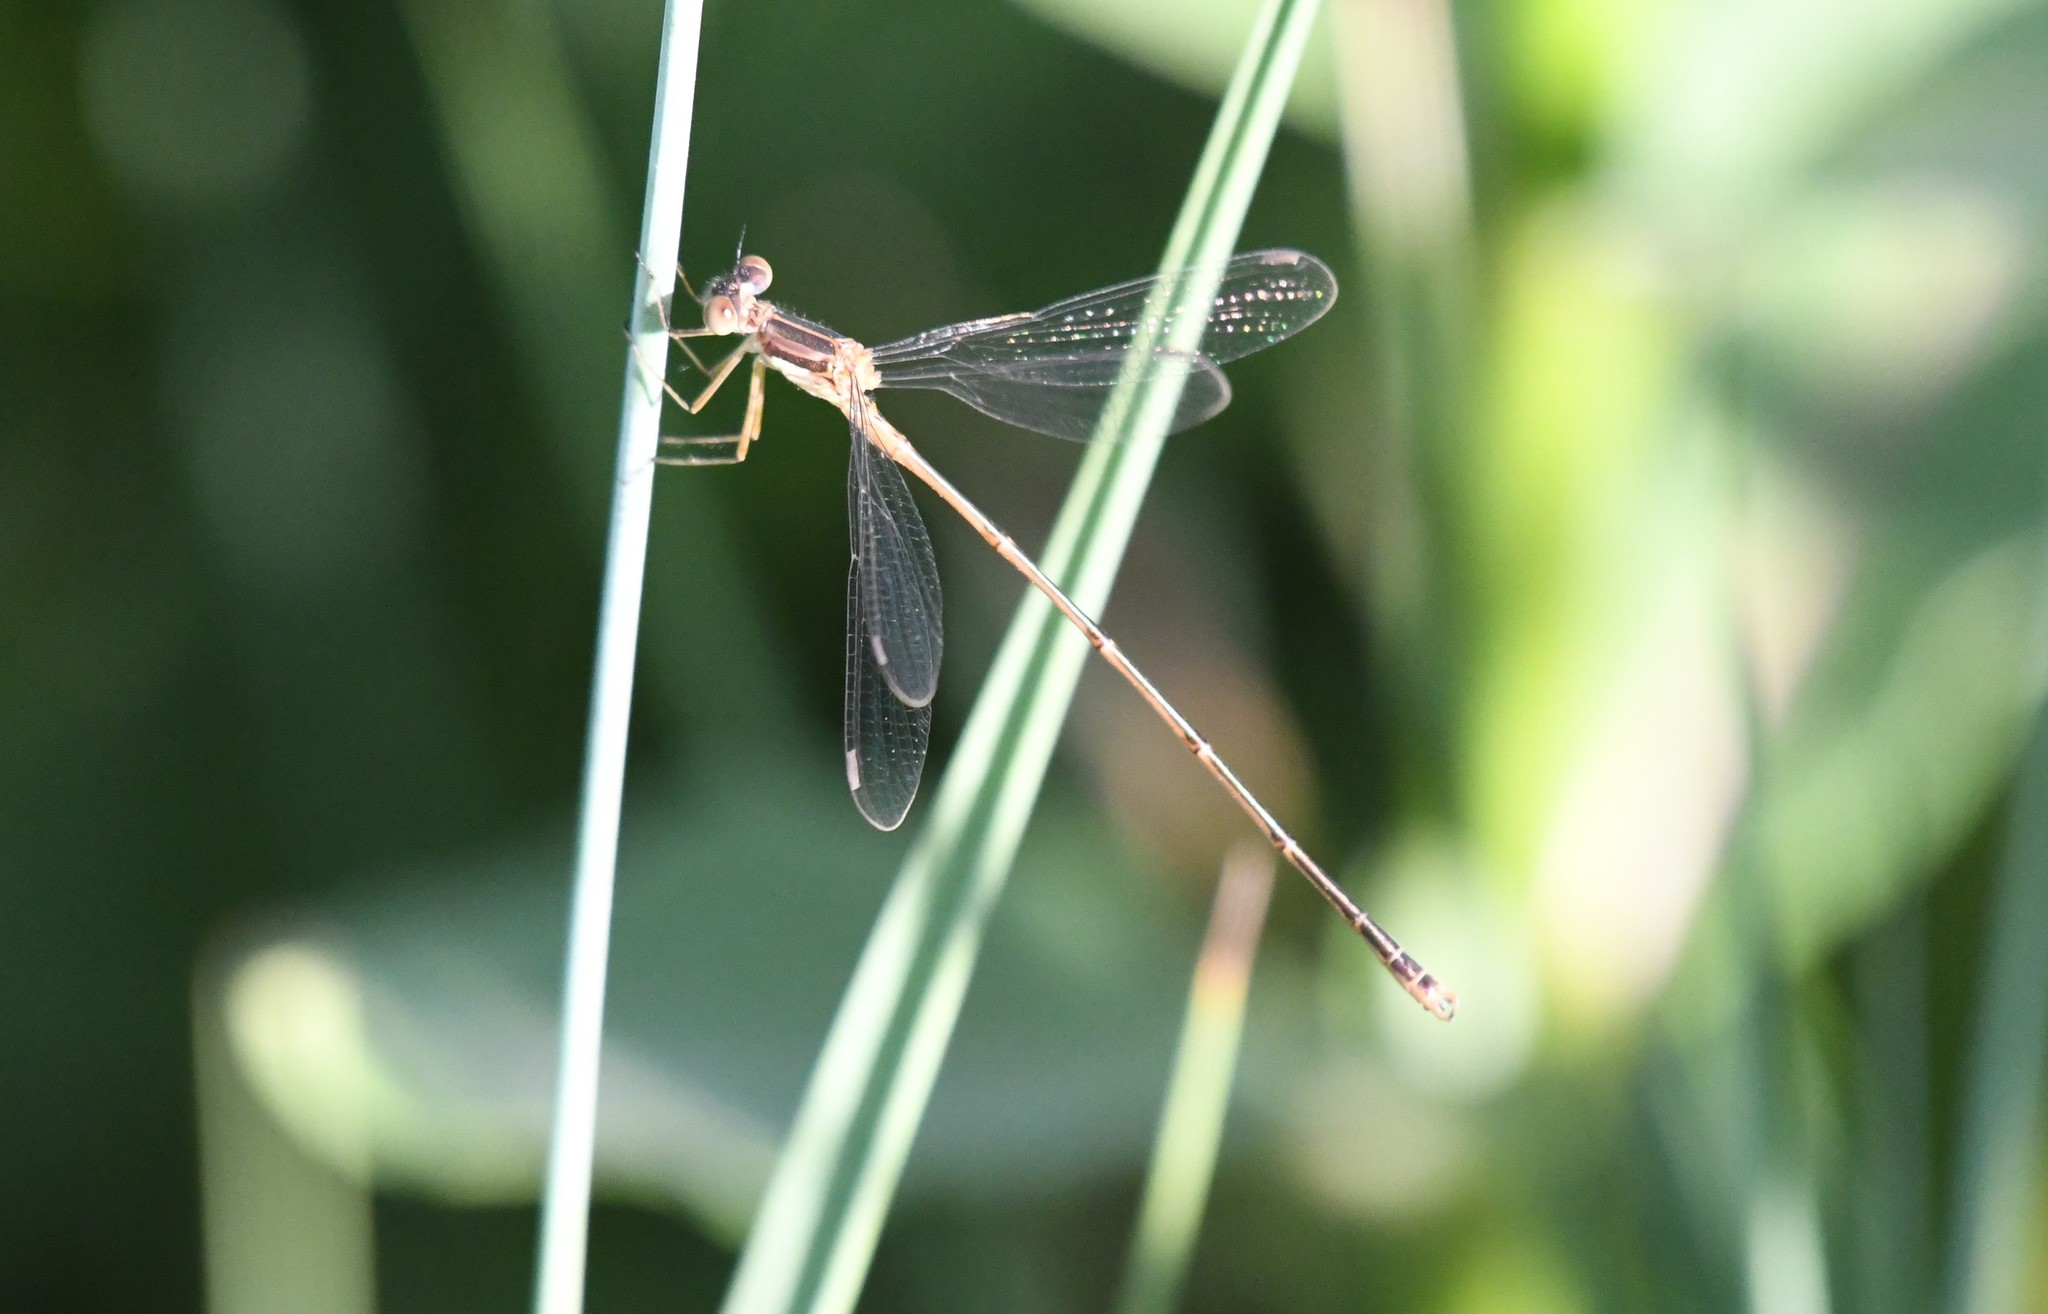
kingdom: Animalia
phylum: Arthropoda
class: Insecta
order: Odonata
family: Lestidae
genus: Lestes
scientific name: Lestes rectangularis
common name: Slender spreadwing
